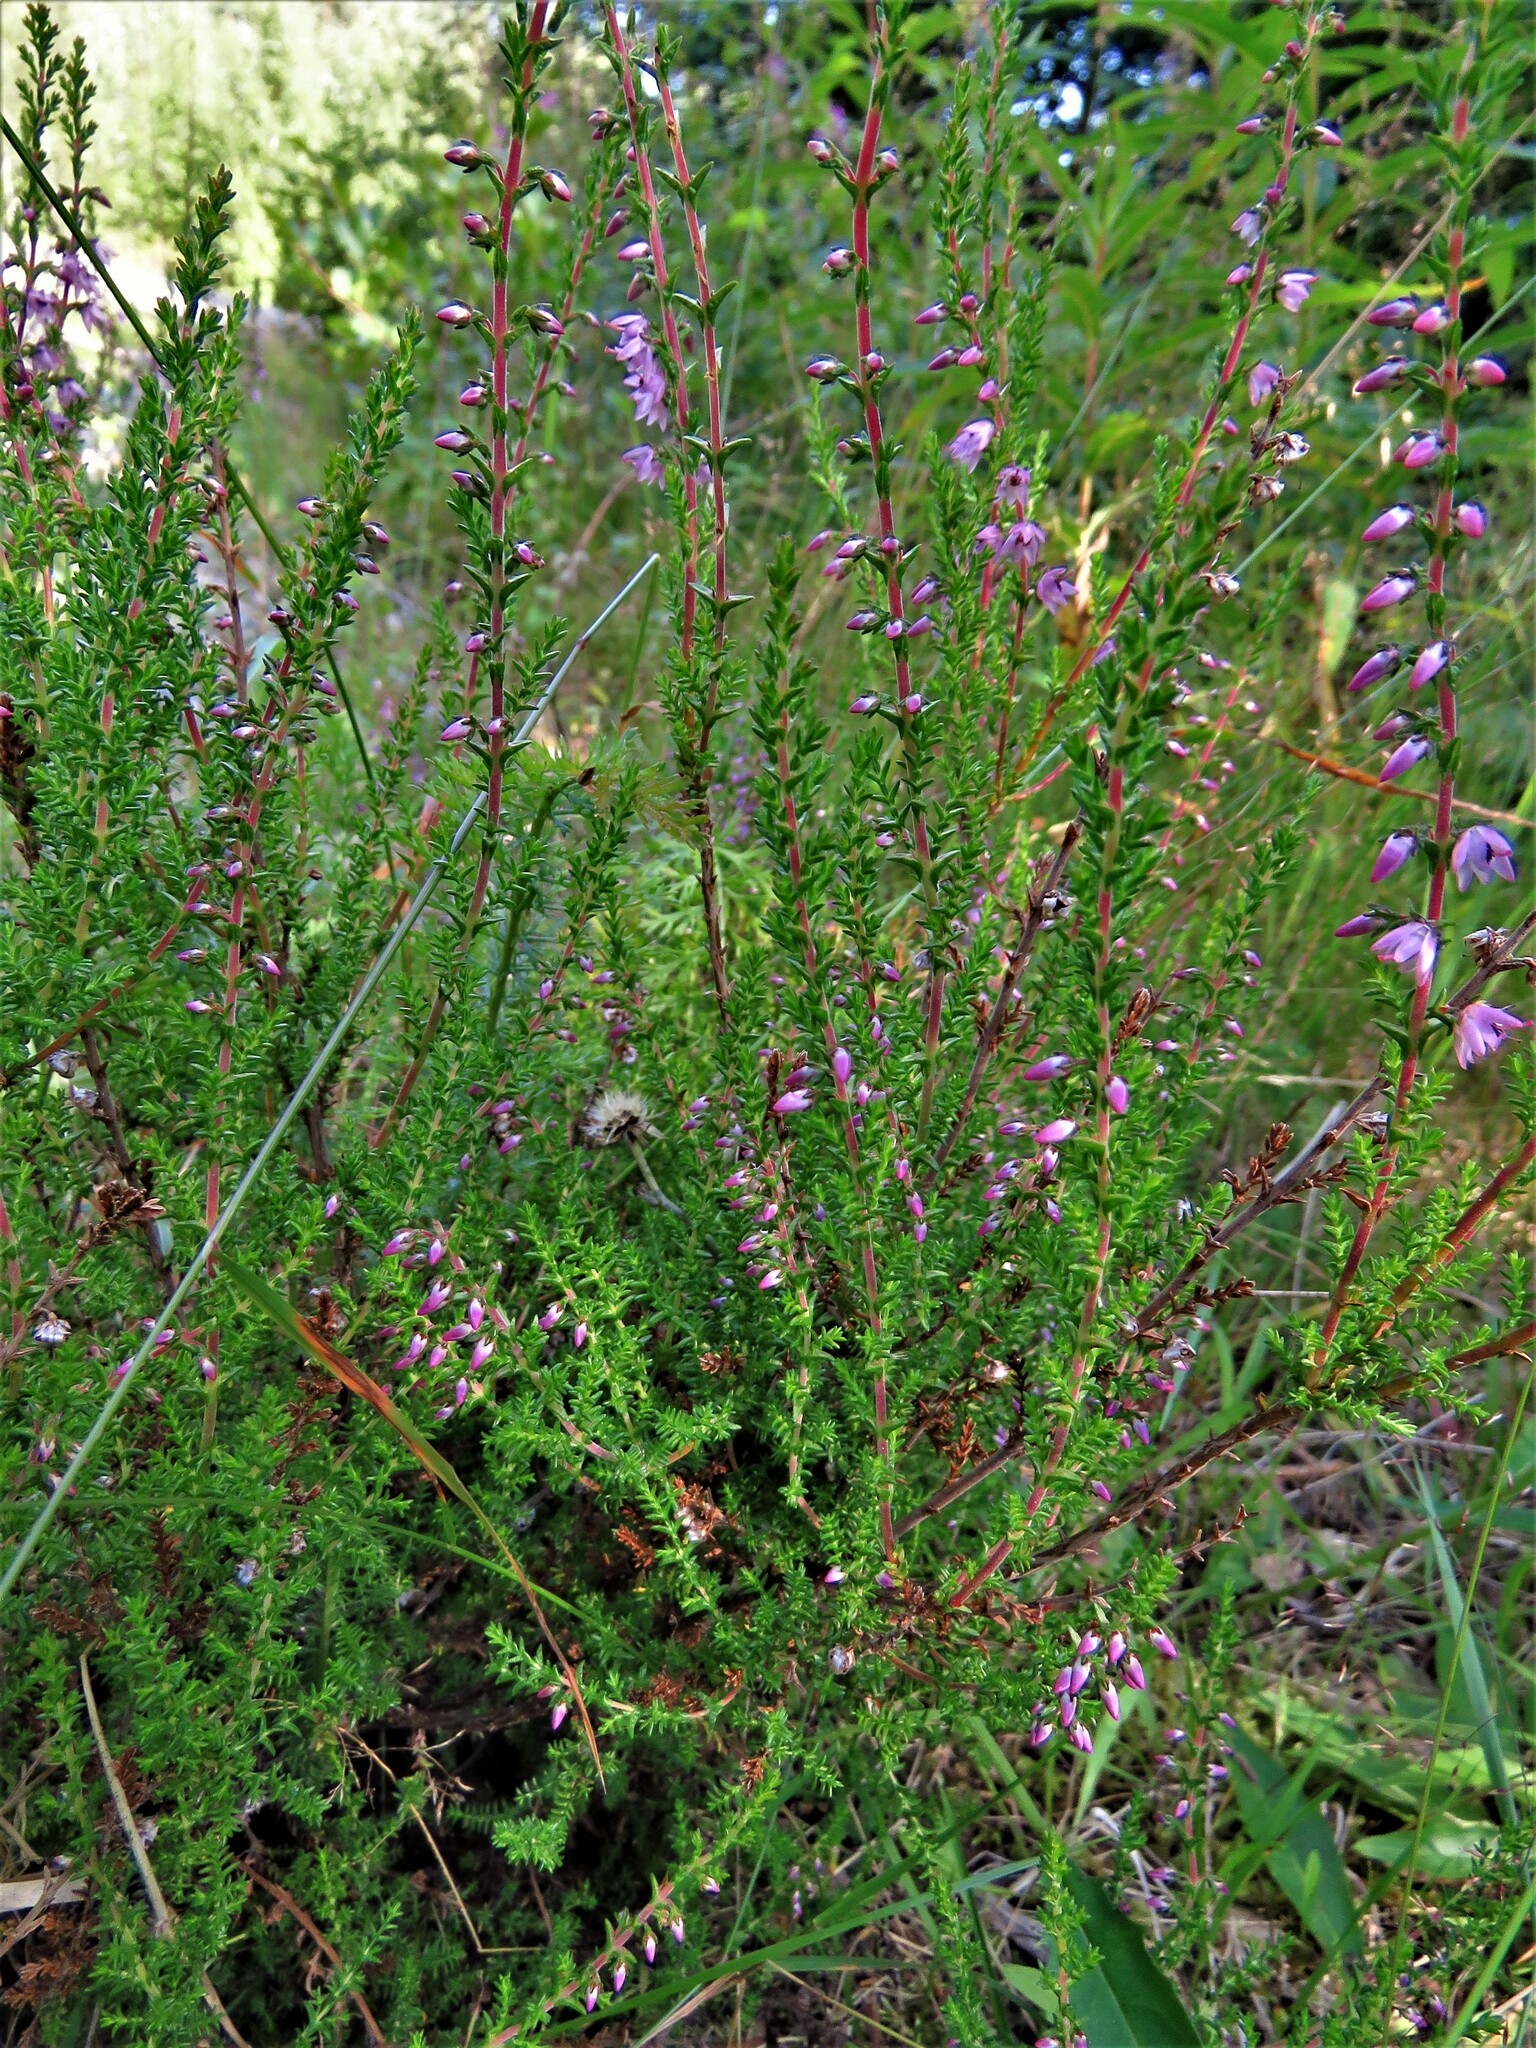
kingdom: Plantae
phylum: Tracheophyta
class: Magnoliopsida
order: Ericales
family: Ericaceae
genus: Calluna
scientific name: Calluna vulgaris
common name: Heather
